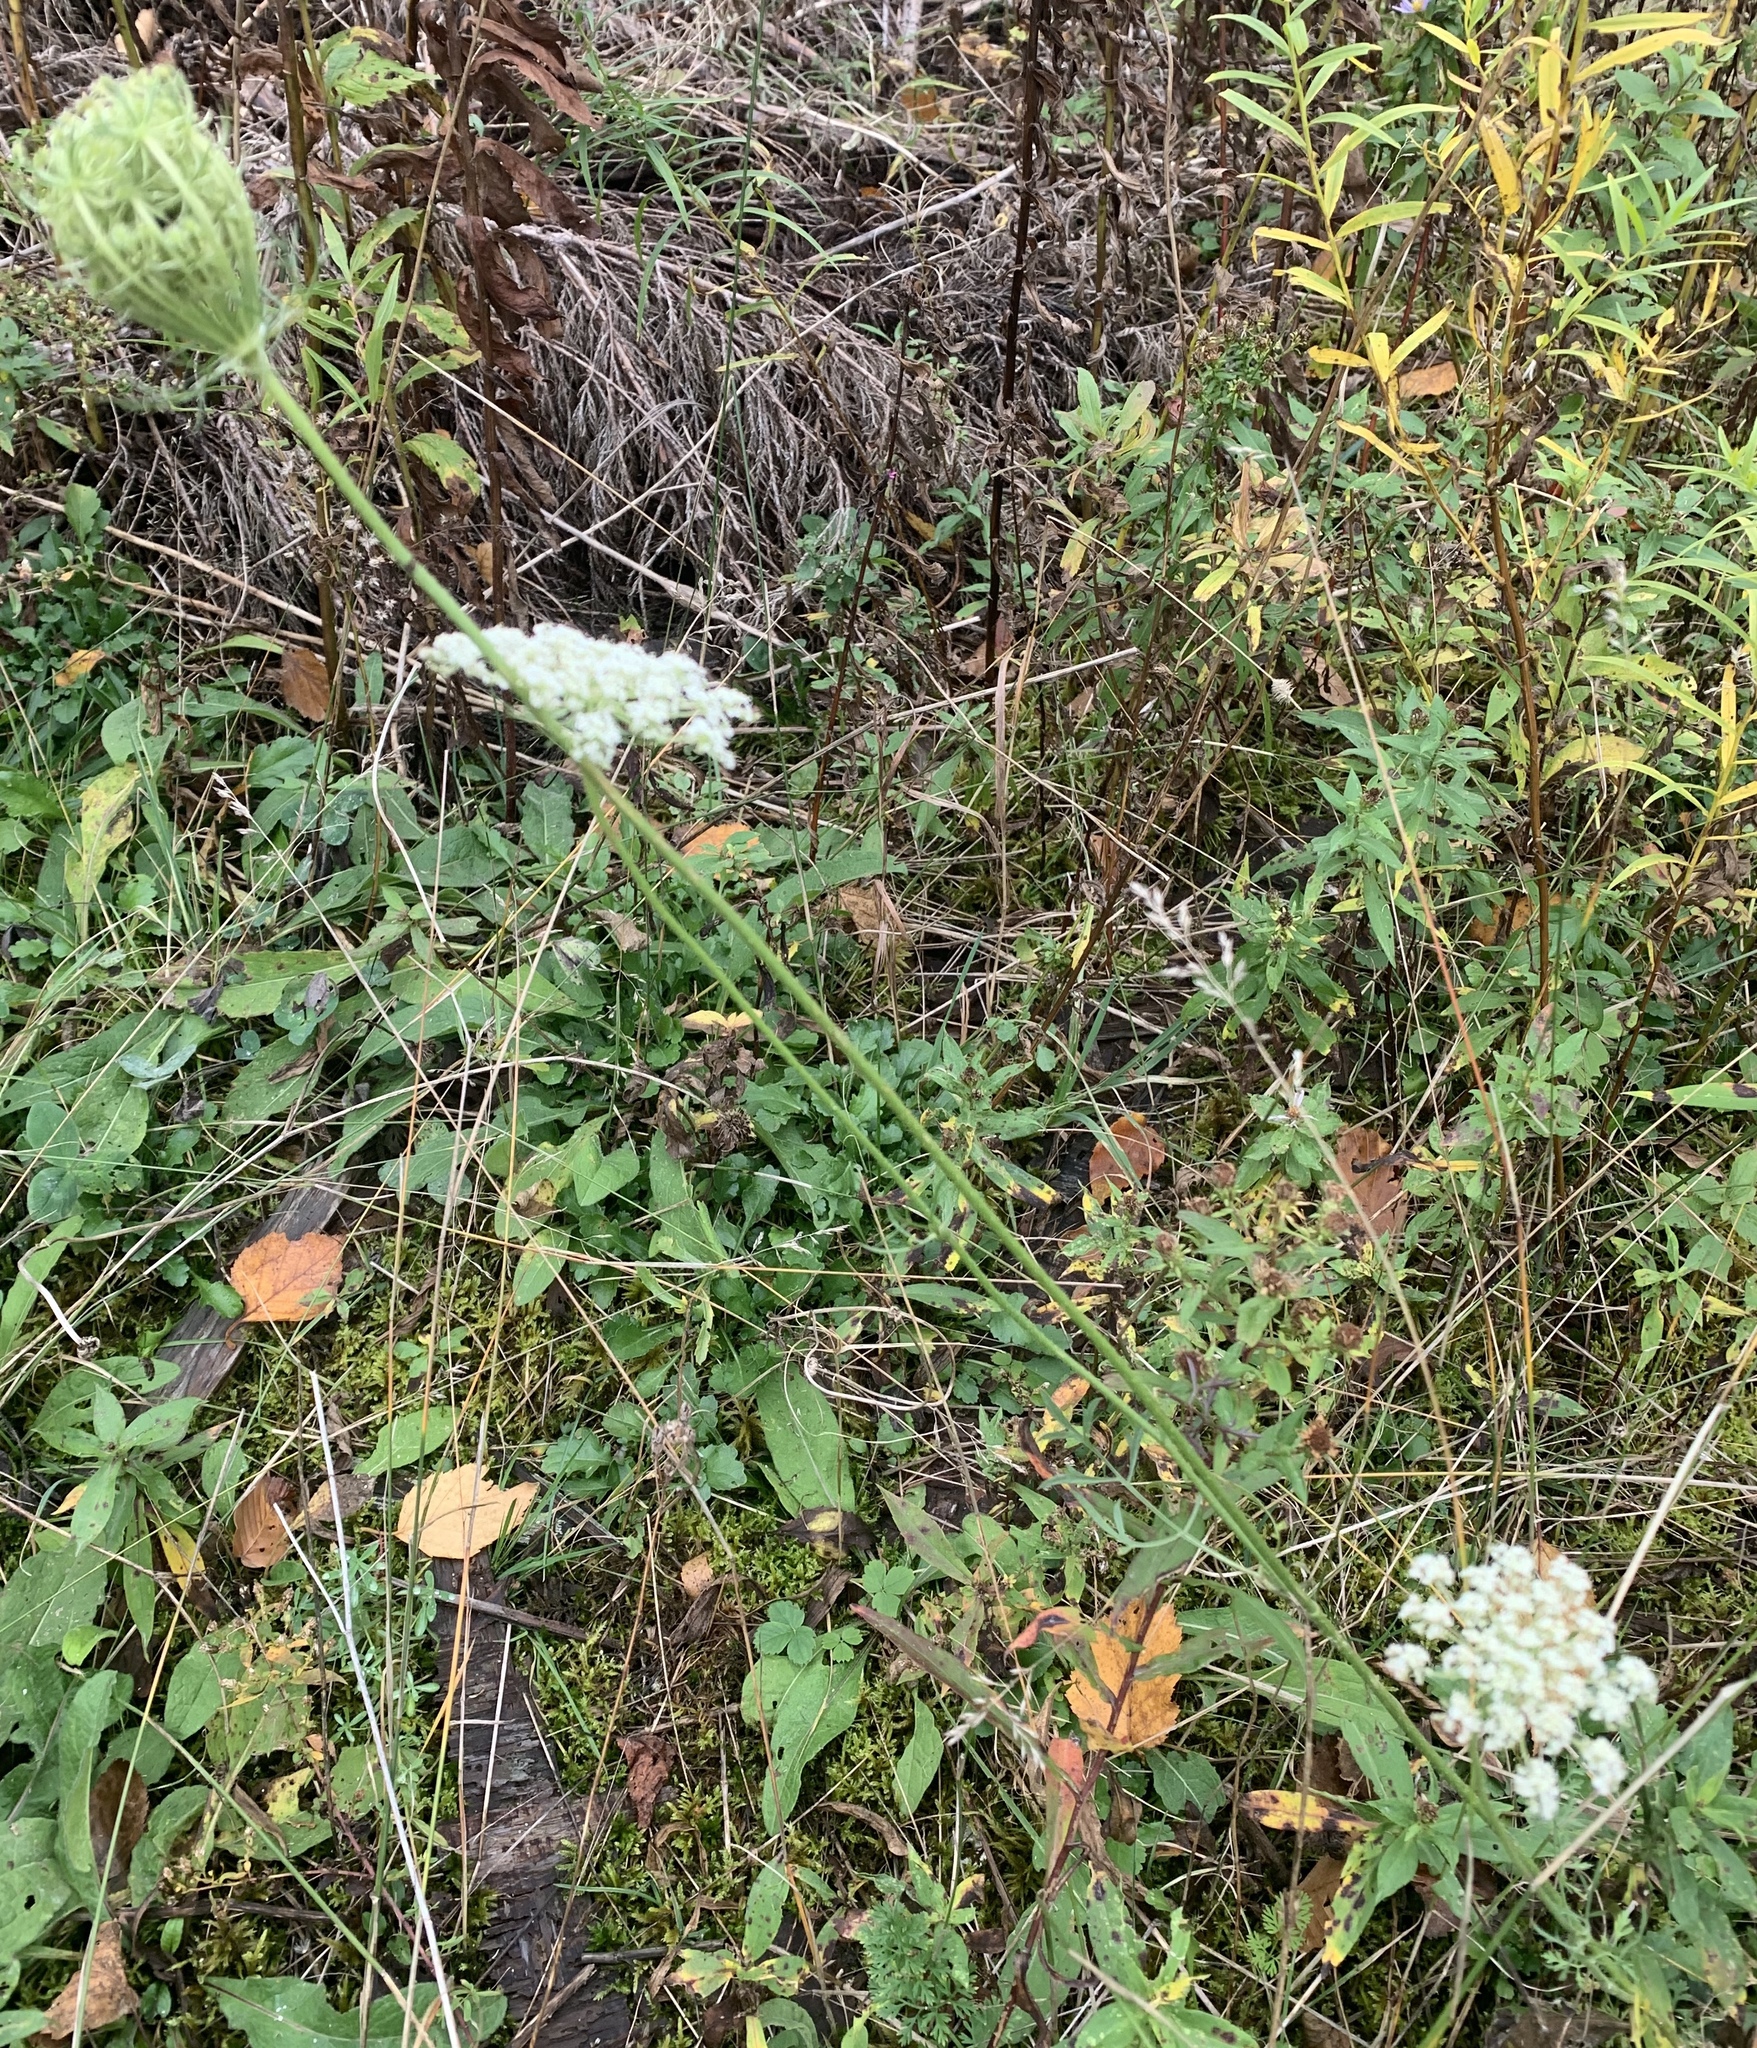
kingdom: Plantae
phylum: Tracheophyta
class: Magnoliopsida
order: Apiales
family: Apiaceae
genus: Daucus
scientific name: Daucus carota
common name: Wild carrot
